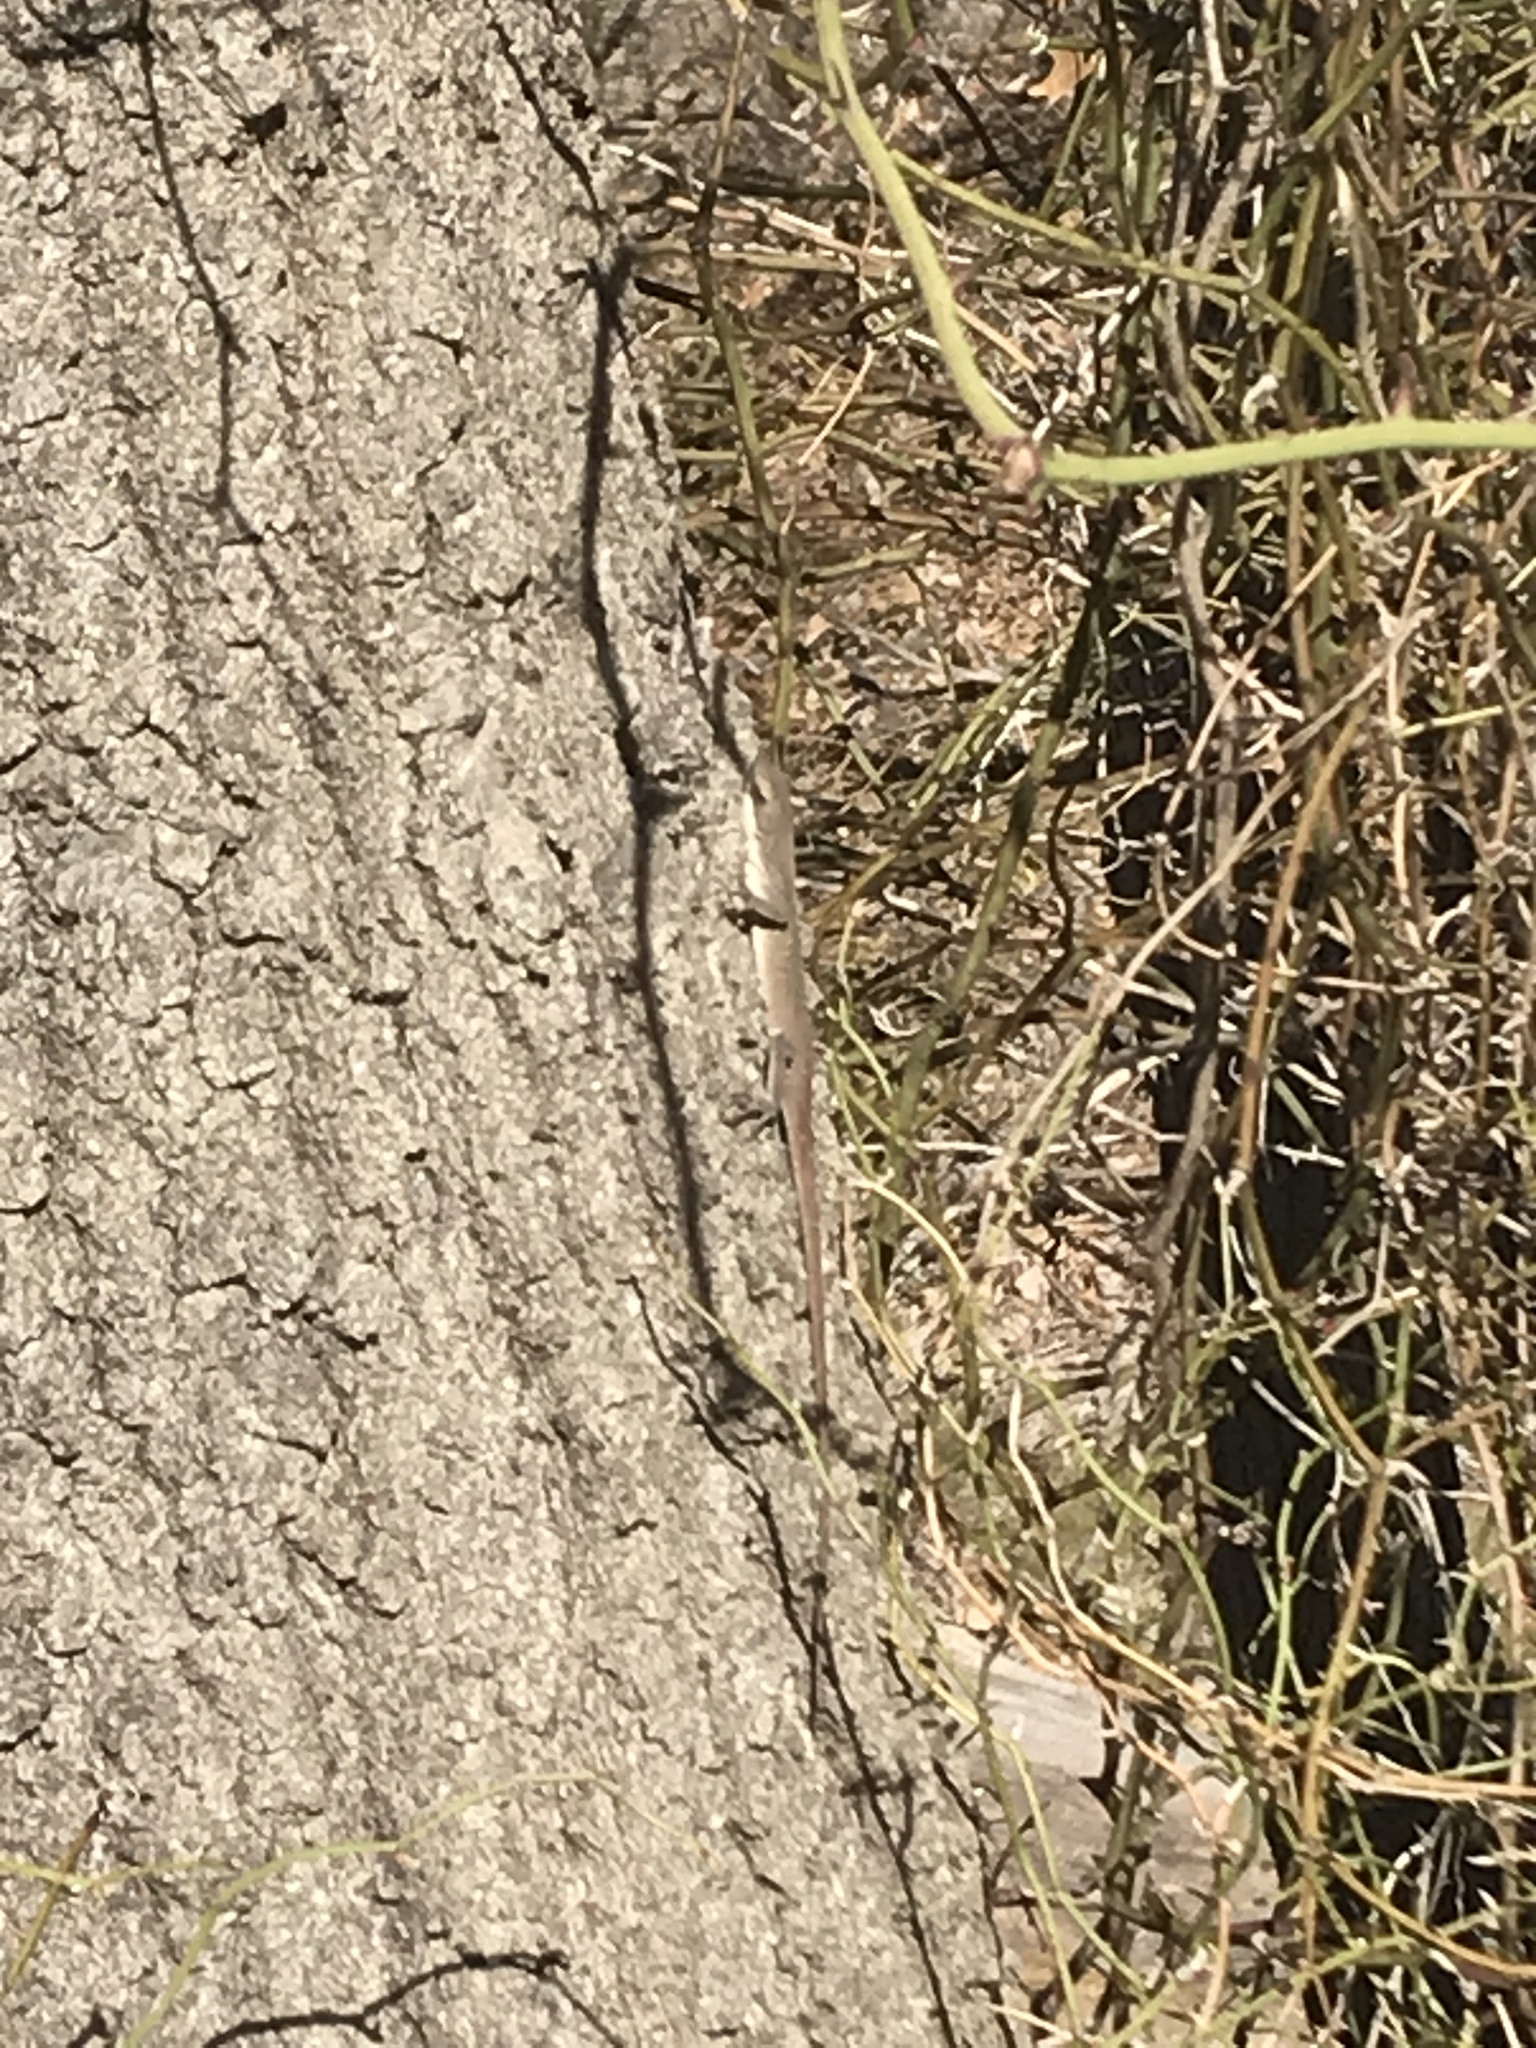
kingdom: Animalia
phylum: Chordata
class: Squamata
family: Dactyloidae
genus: Anolis
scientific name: Anolis carolinensis
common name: Green anole
